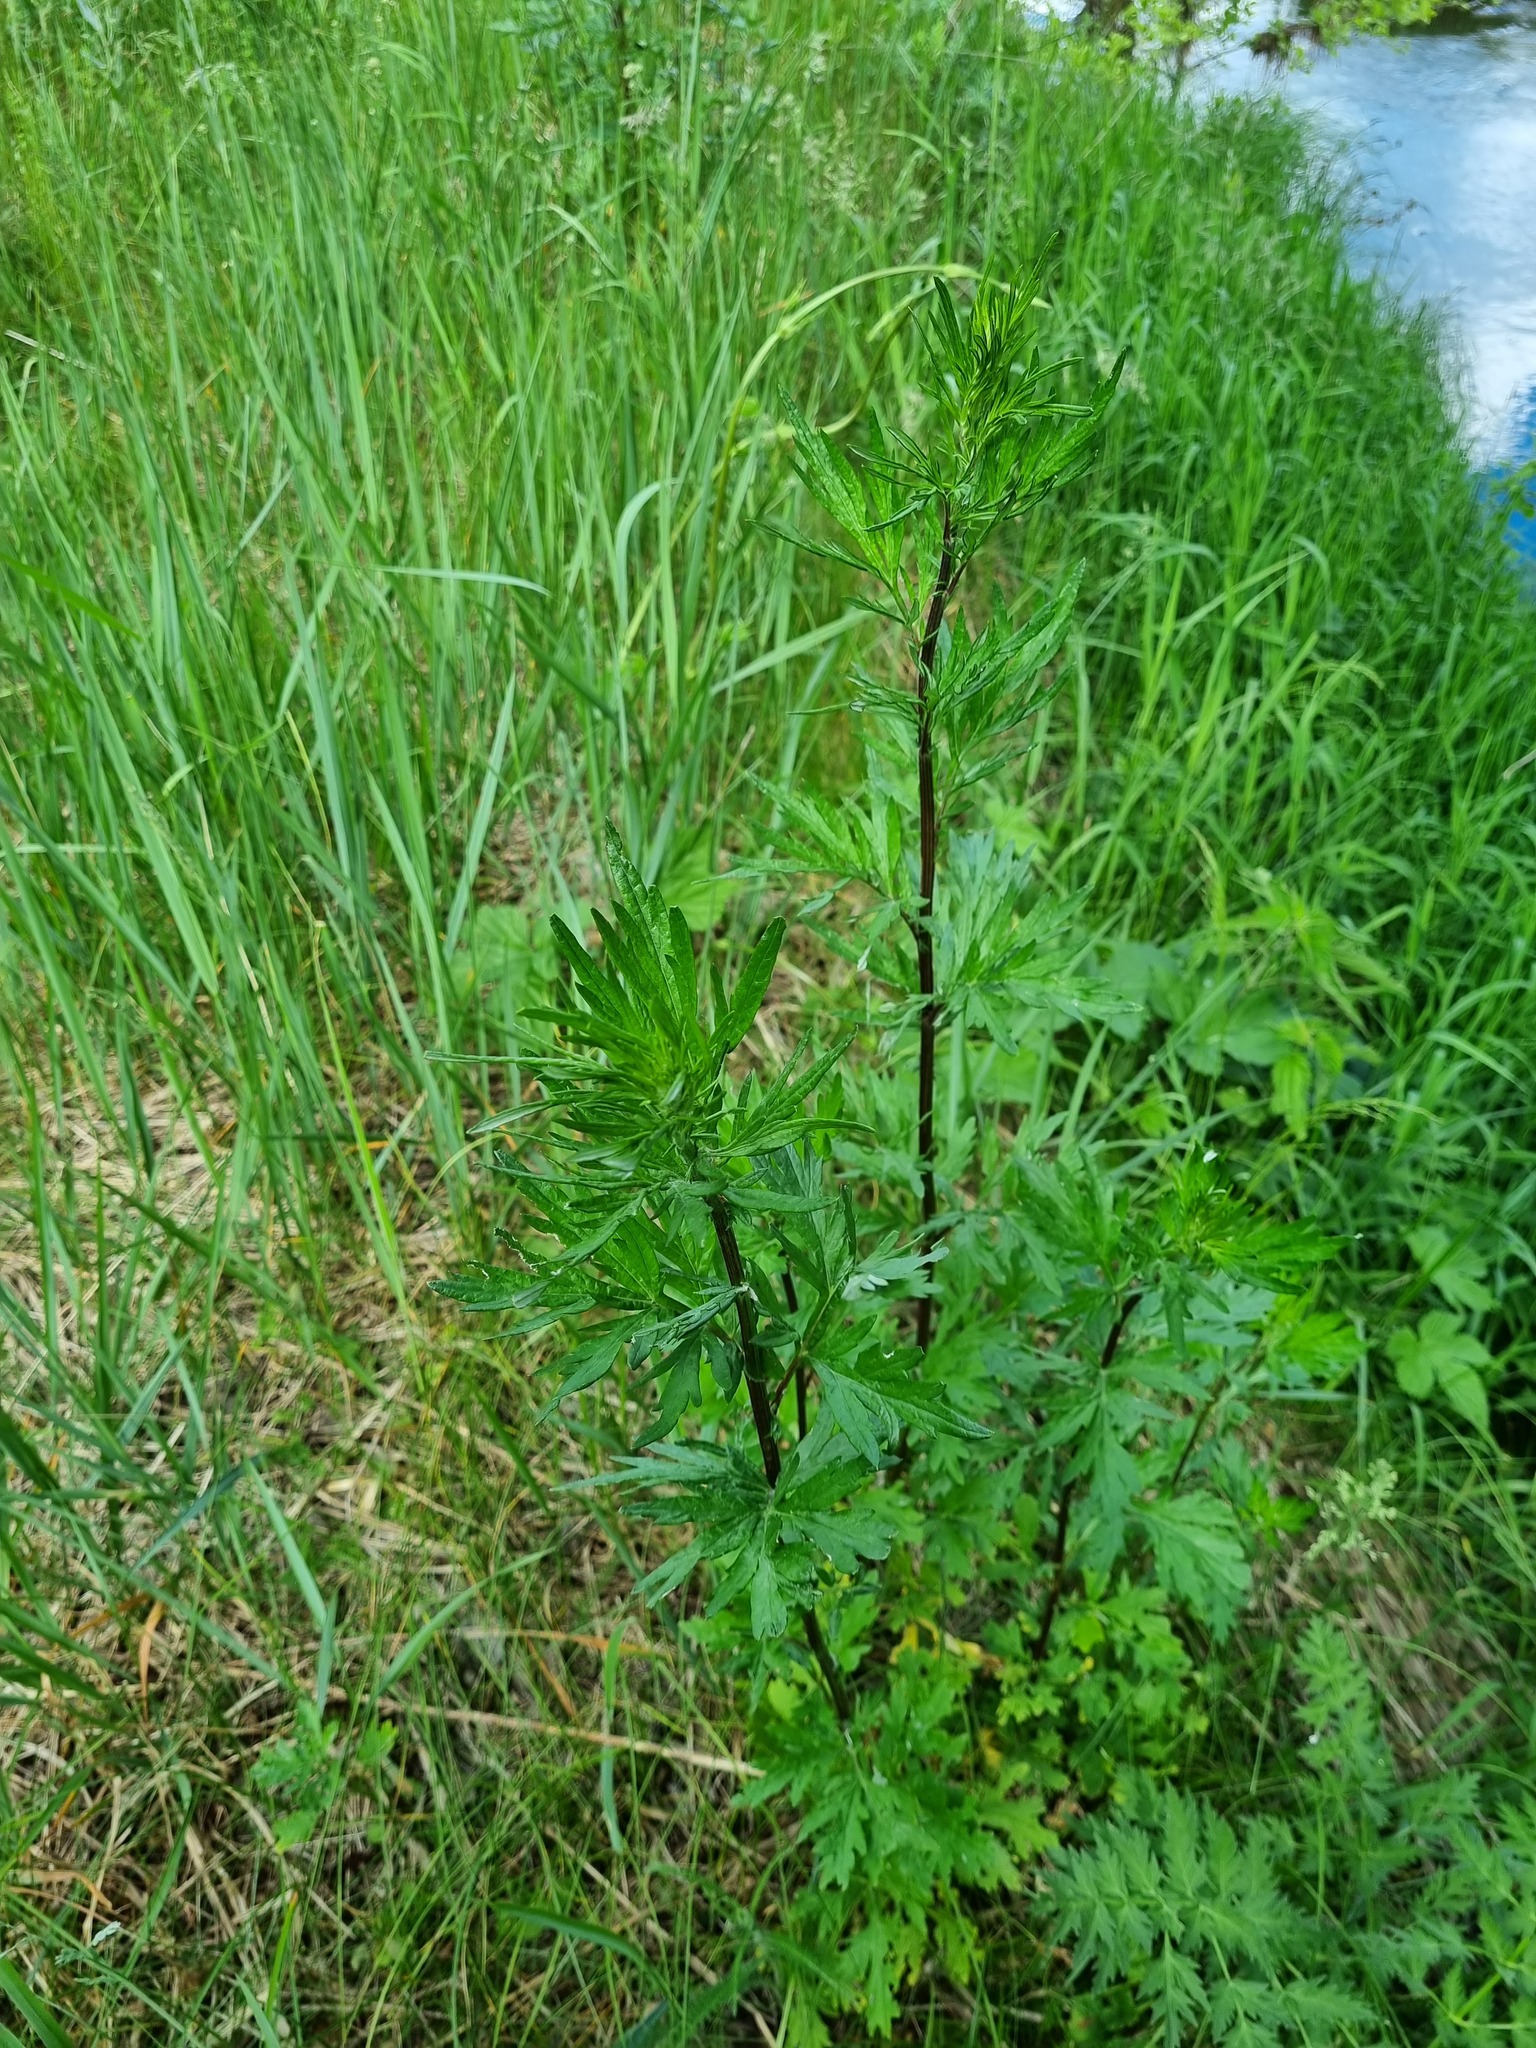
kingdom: Plantae
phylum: Tracheophyta
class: Magnoliopsida
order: Asterales
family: Asteraceae
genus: Artemisia
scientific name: Artemisia vulgaris
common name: Mugwort
